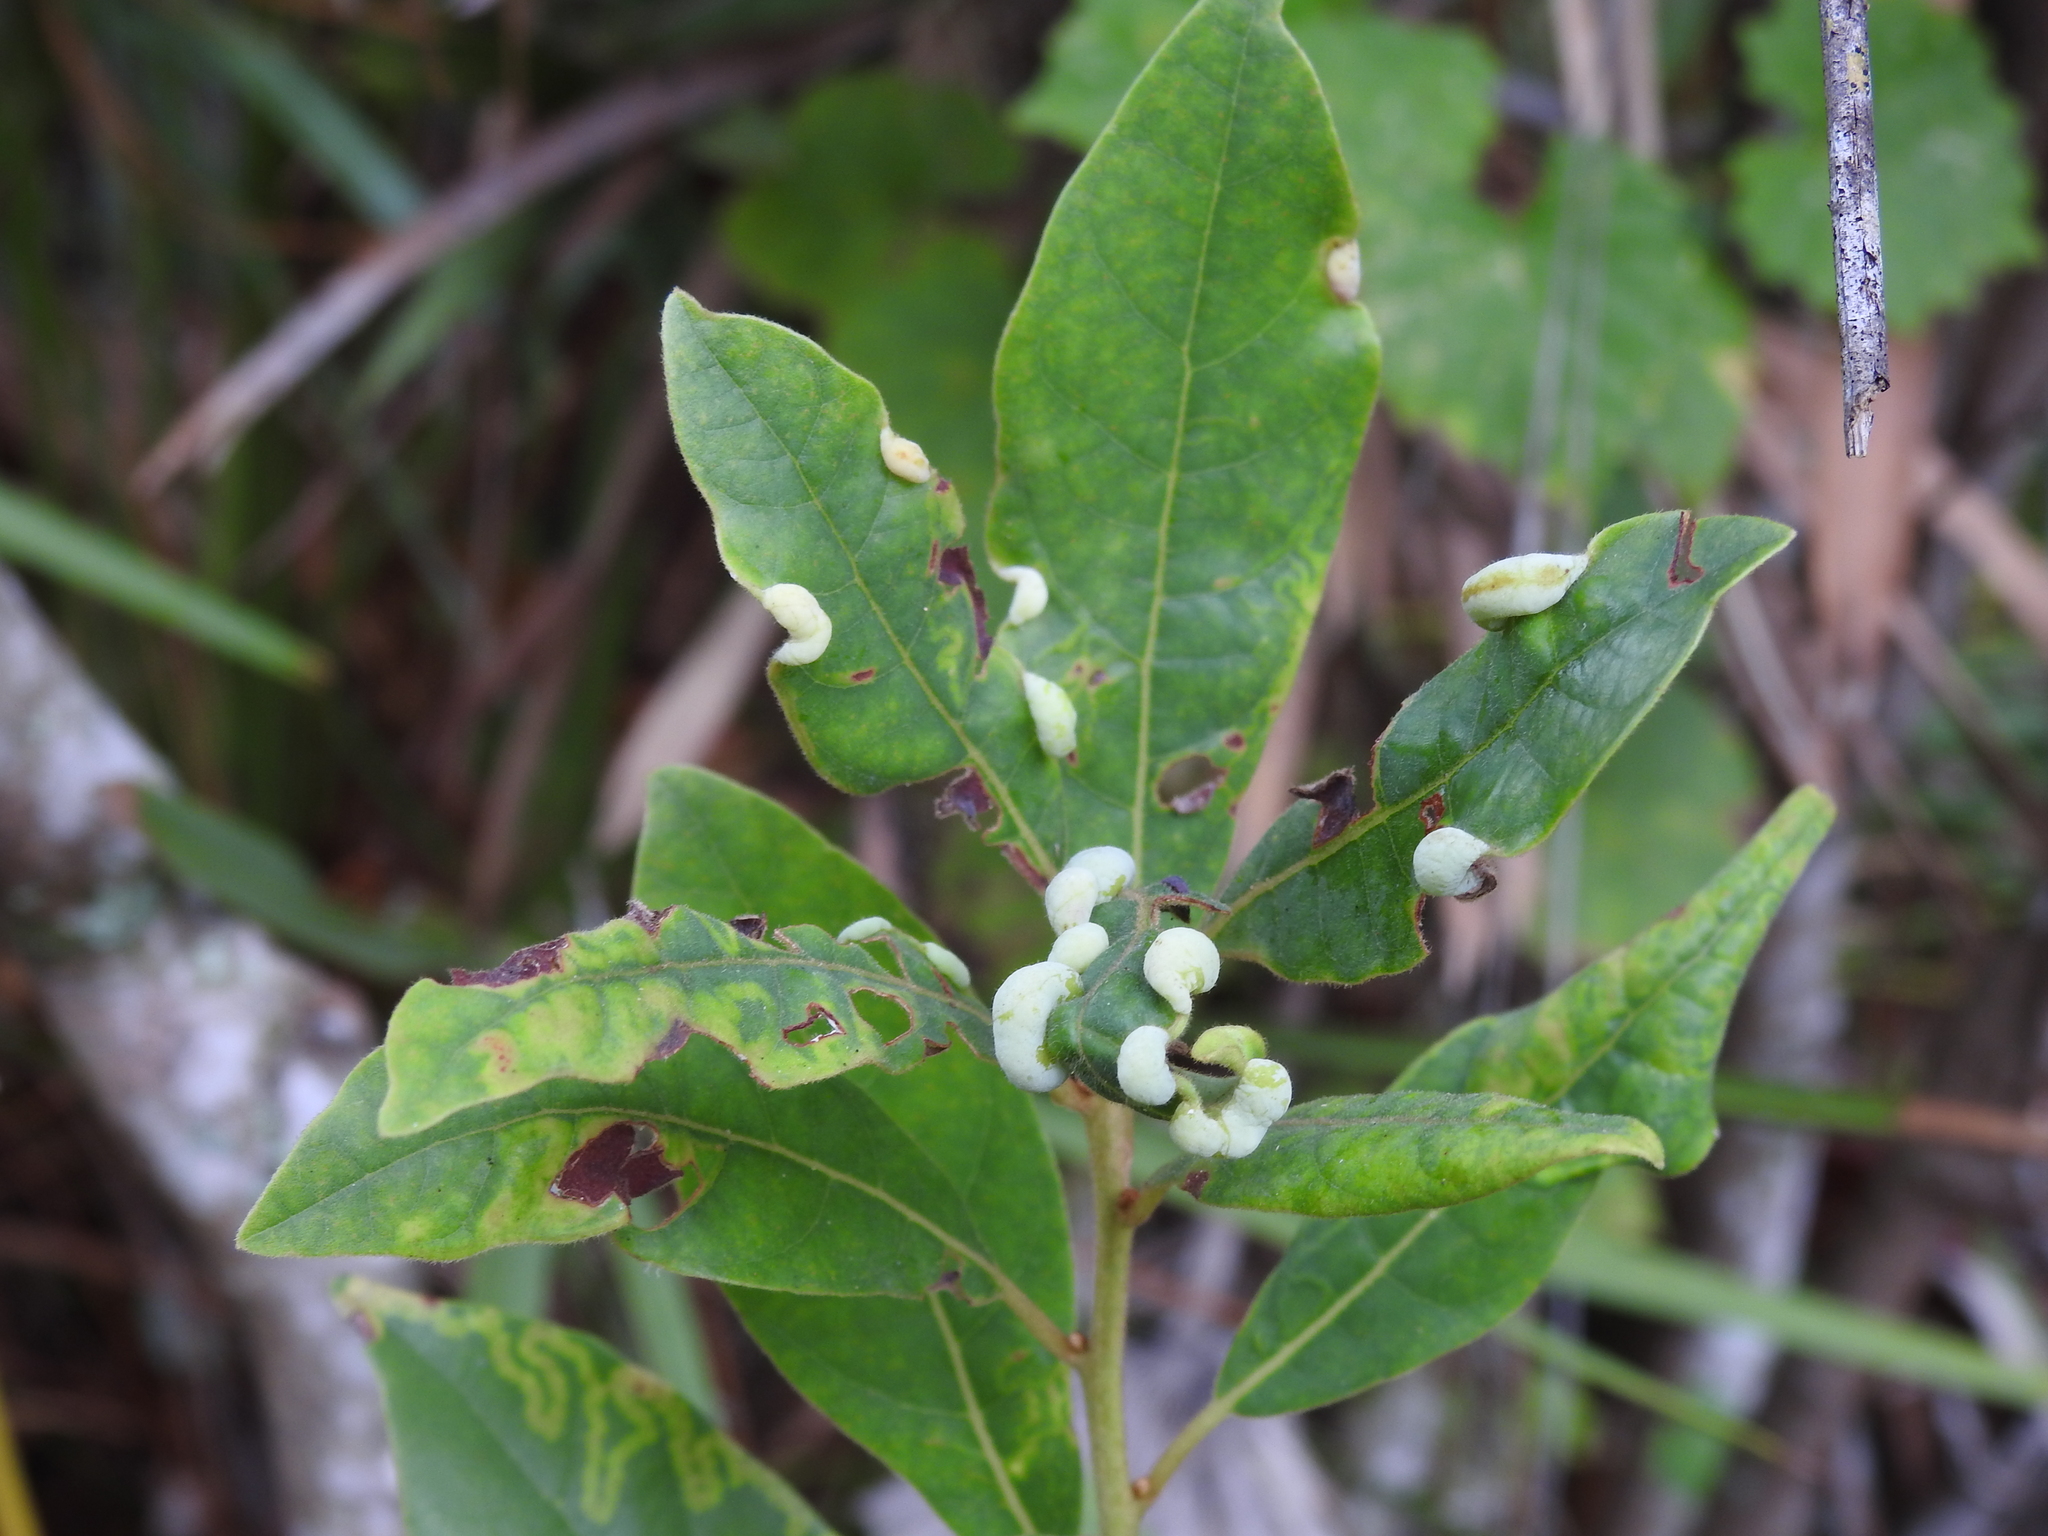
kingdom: Animalia
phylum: Arthropoda
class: Insecta
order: Hemiptera
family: Triozidae
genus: Trioza
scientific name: Trioza magnoliae
